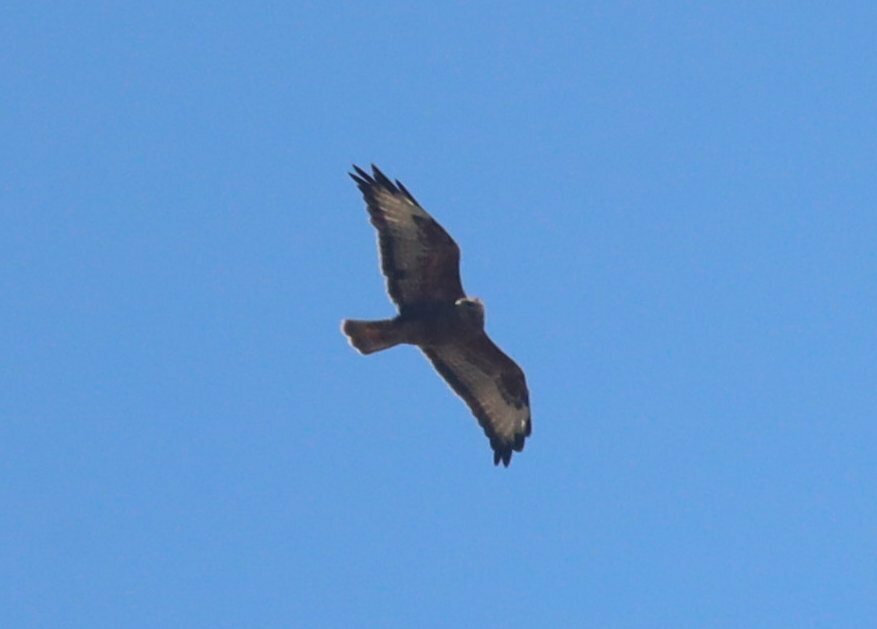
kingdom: Animalia
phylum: Chordata
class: Aves
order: Accipitriformes
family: Accipitridae
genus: Buteo
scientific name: Buteo buteo
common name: Common buzzard
